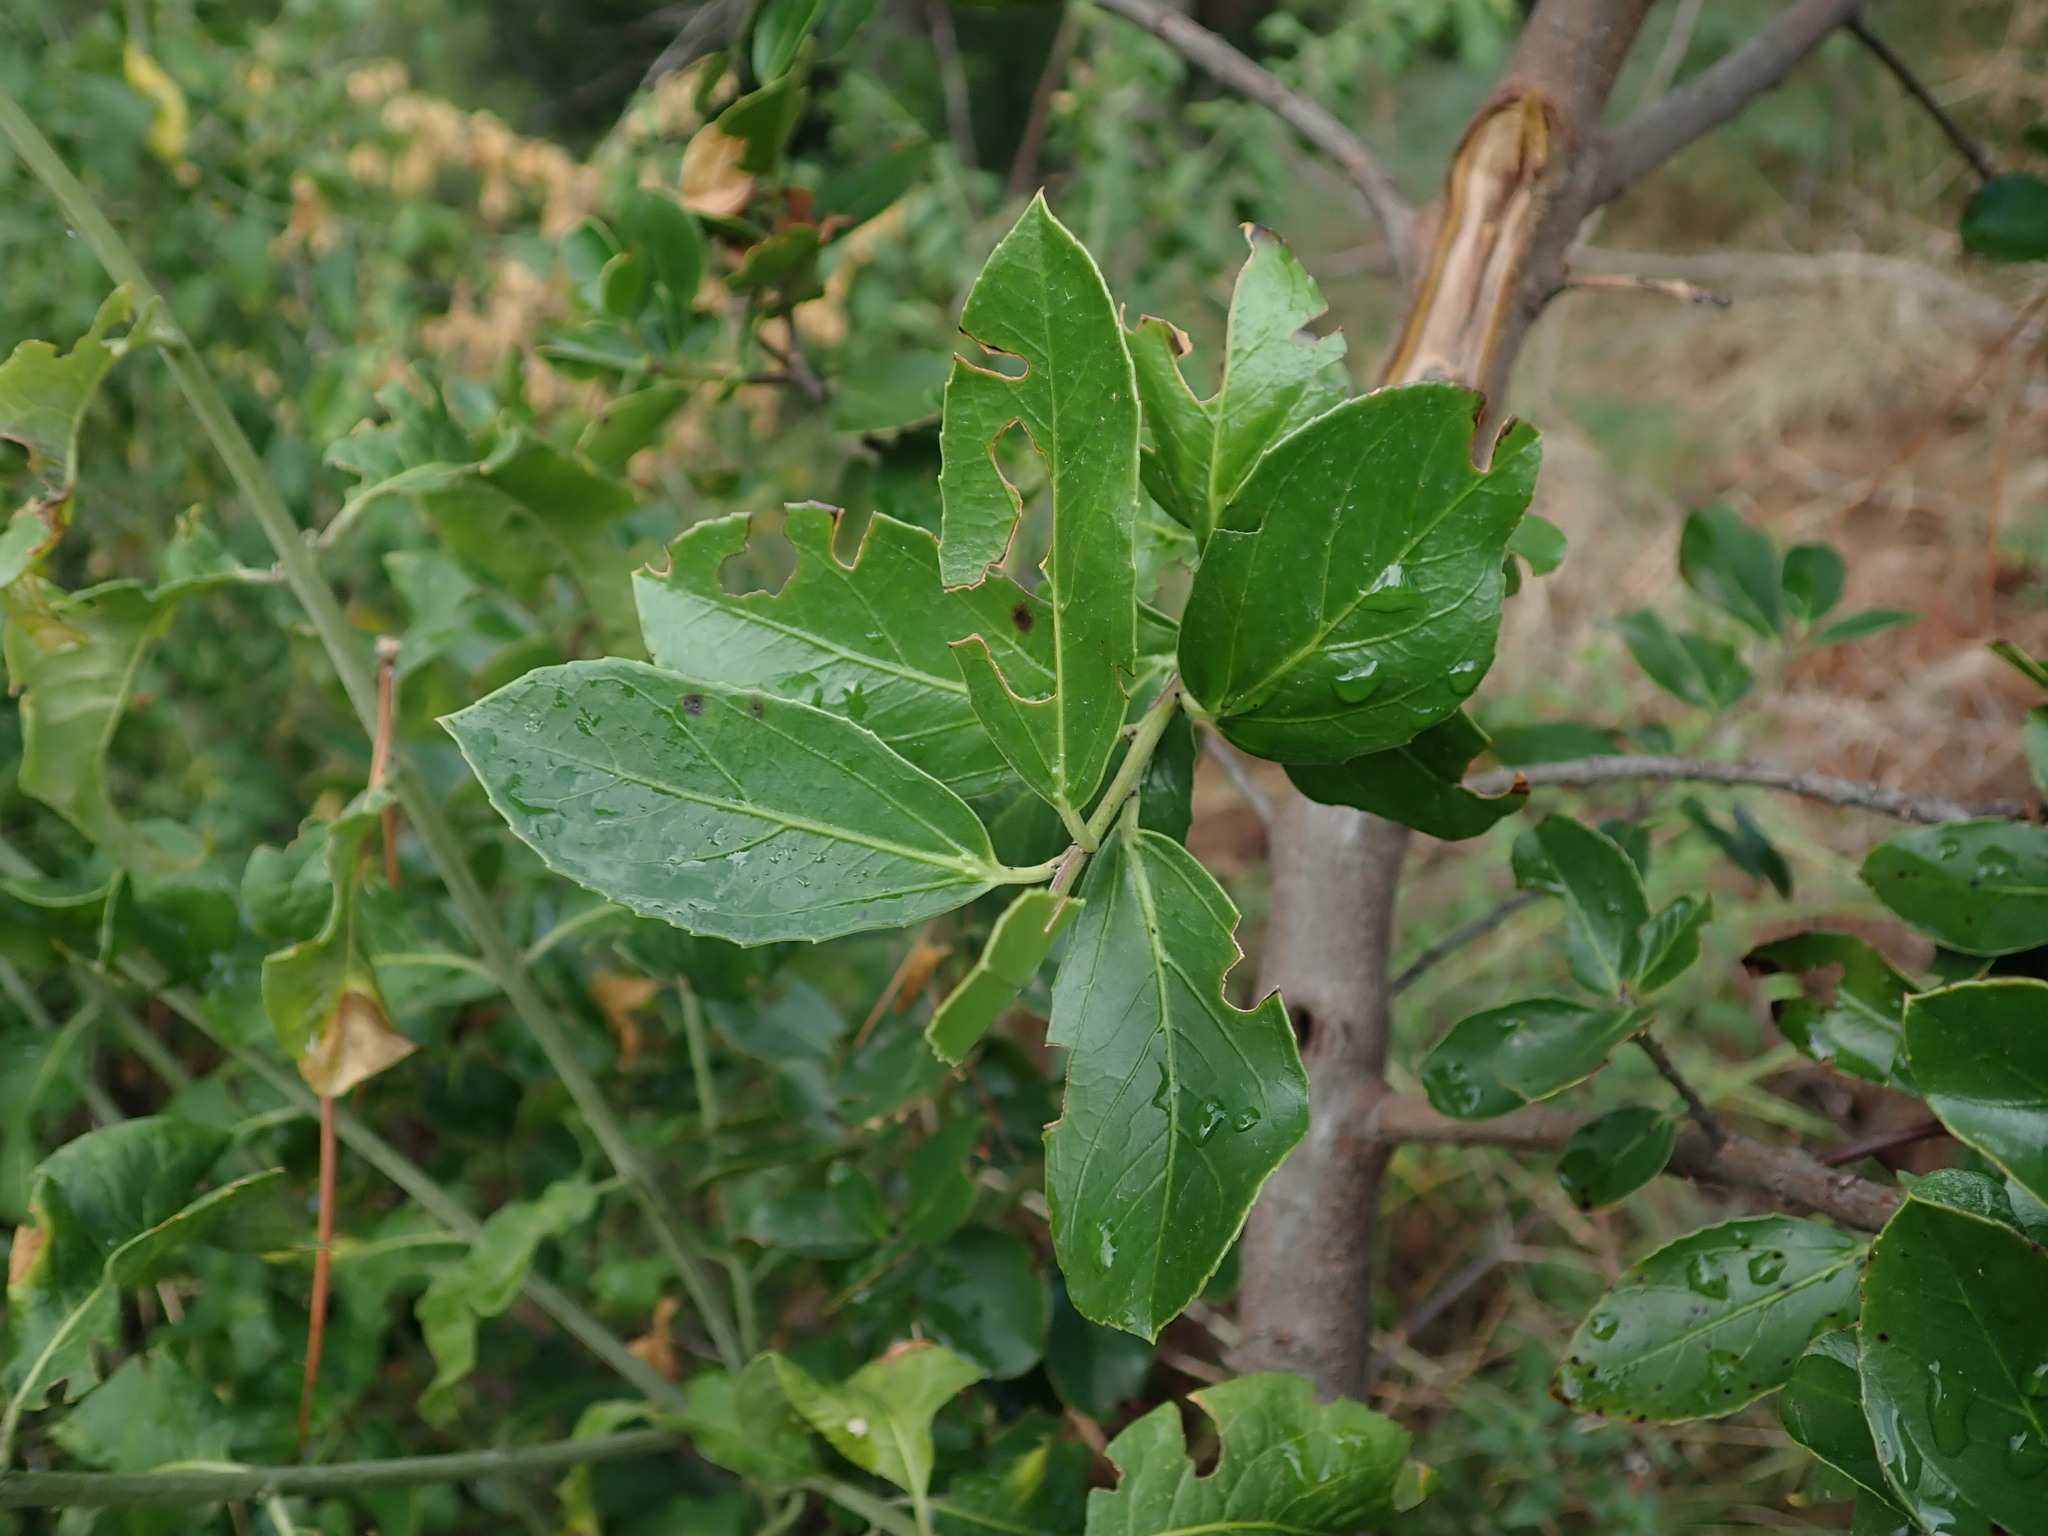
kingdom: Plantae
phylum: Tracheophyta
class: Magnoliopsida
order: Rosales
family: Rhamnaceae
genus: Rhamnus
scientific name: Rhamnus alaternus
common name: Mediterranean buckthorn
